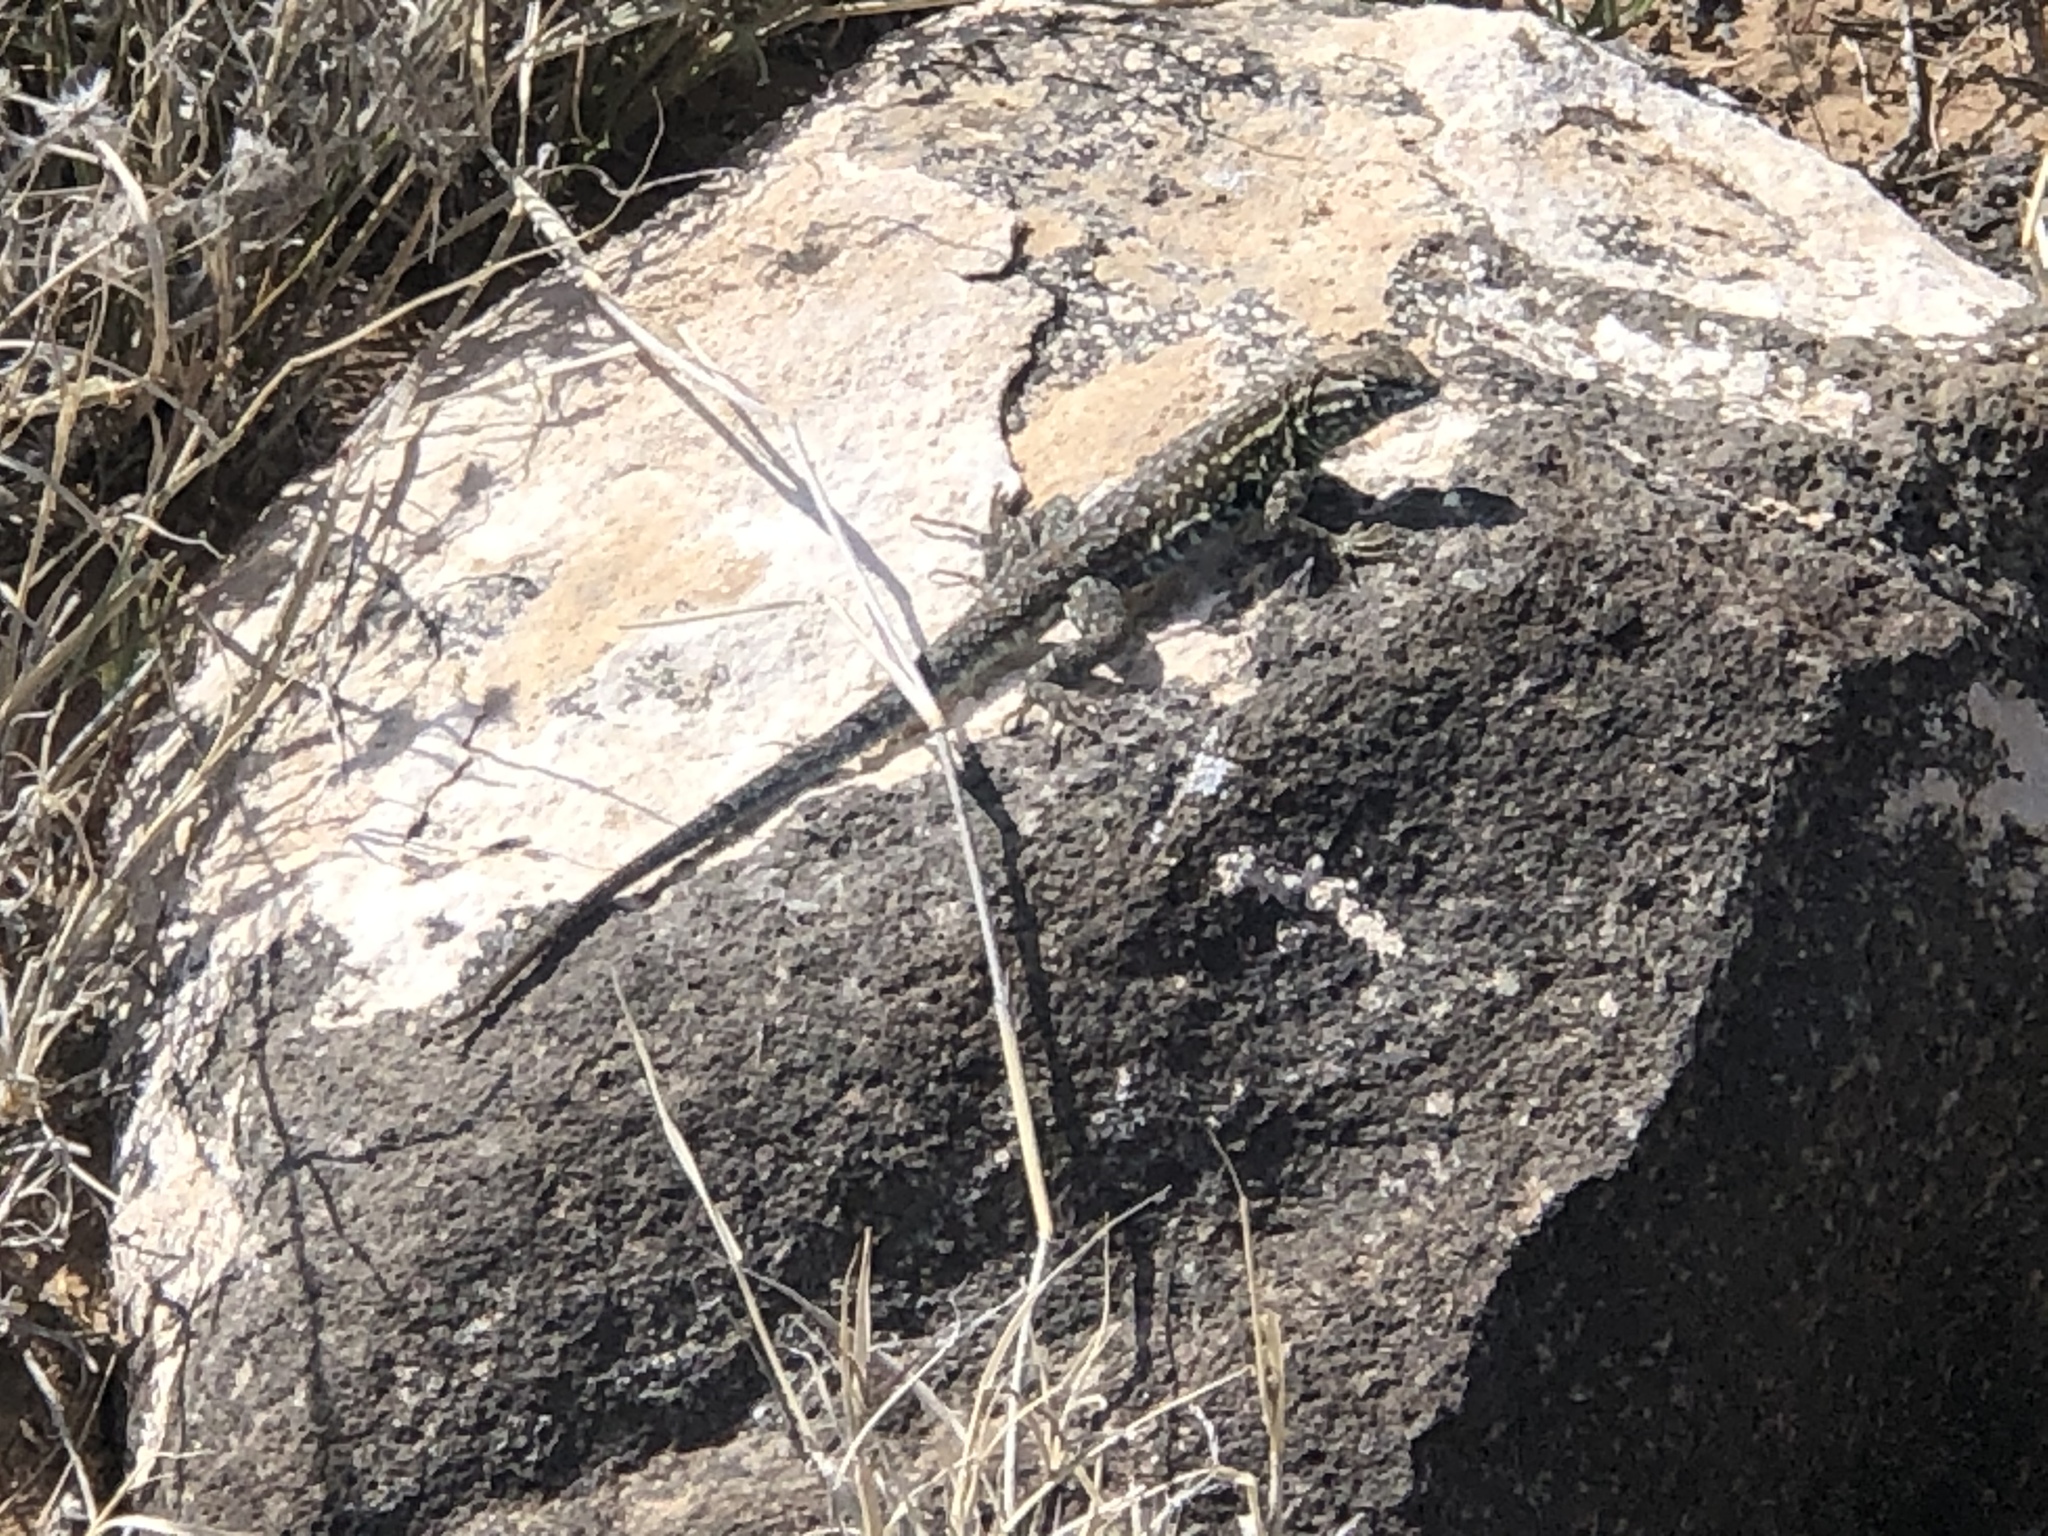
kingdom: Animalia
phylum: Chordata
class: Squamata
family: Phrynosomatidae
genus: Uta
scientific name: Uta stansburiana
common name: Side-blotched lizard
